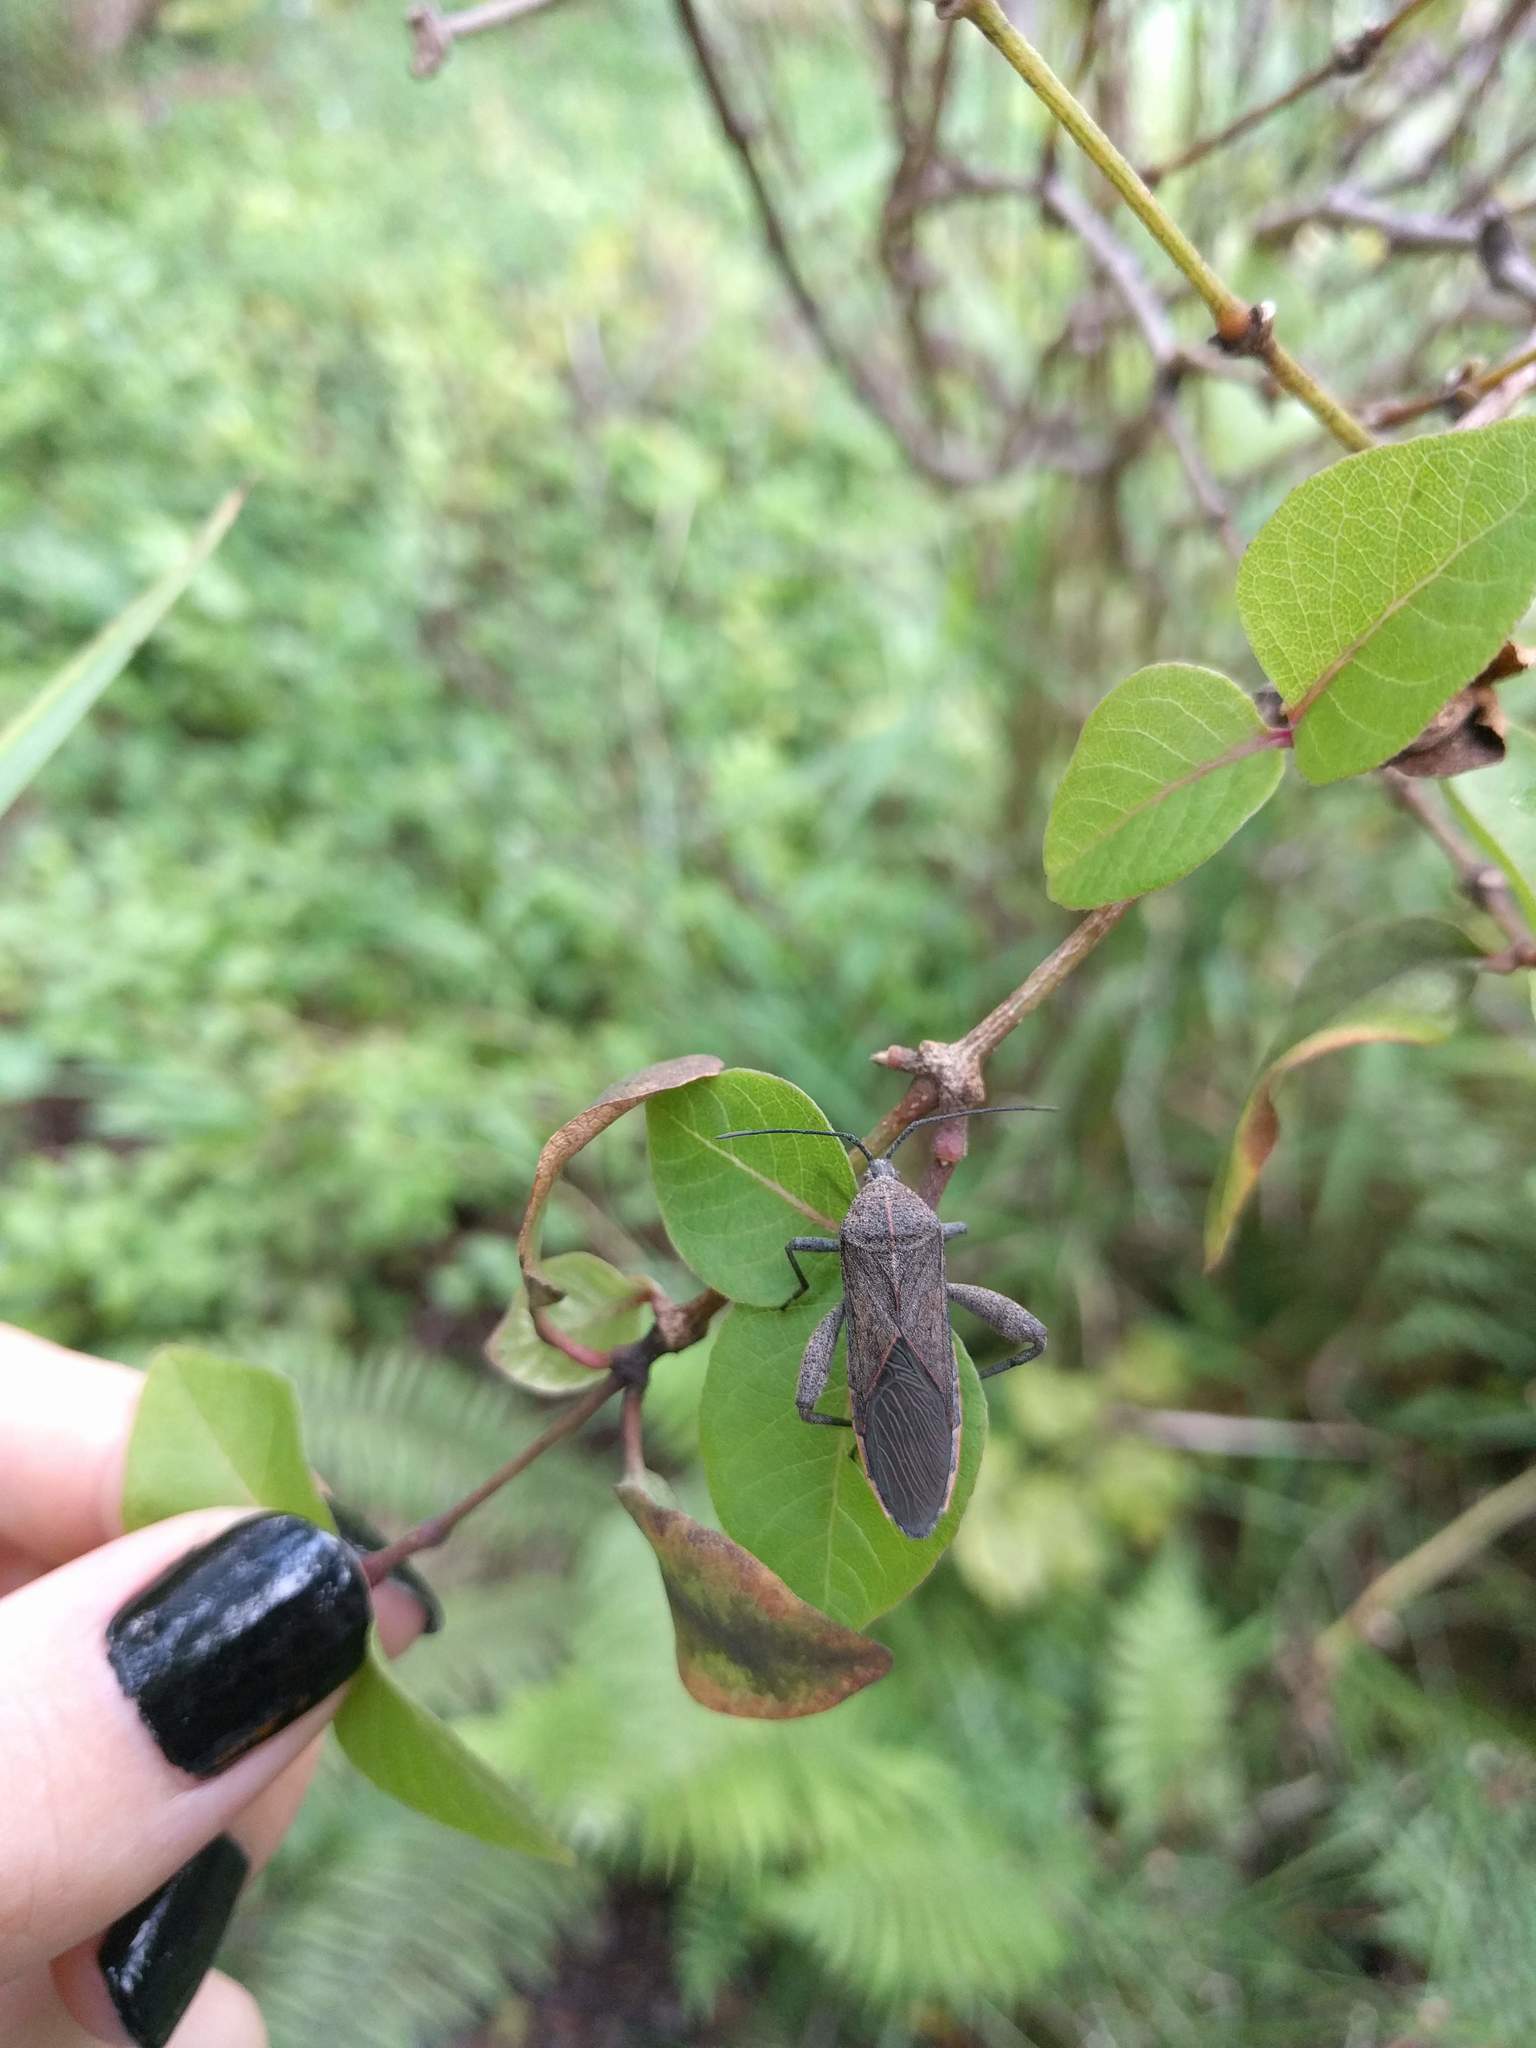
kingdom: Animalia
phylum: Arthropoda
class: Insecta
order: Hemiptera
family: Coreidae
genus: Physomerus
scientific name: Physomerus grossipes
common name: Squash bug
